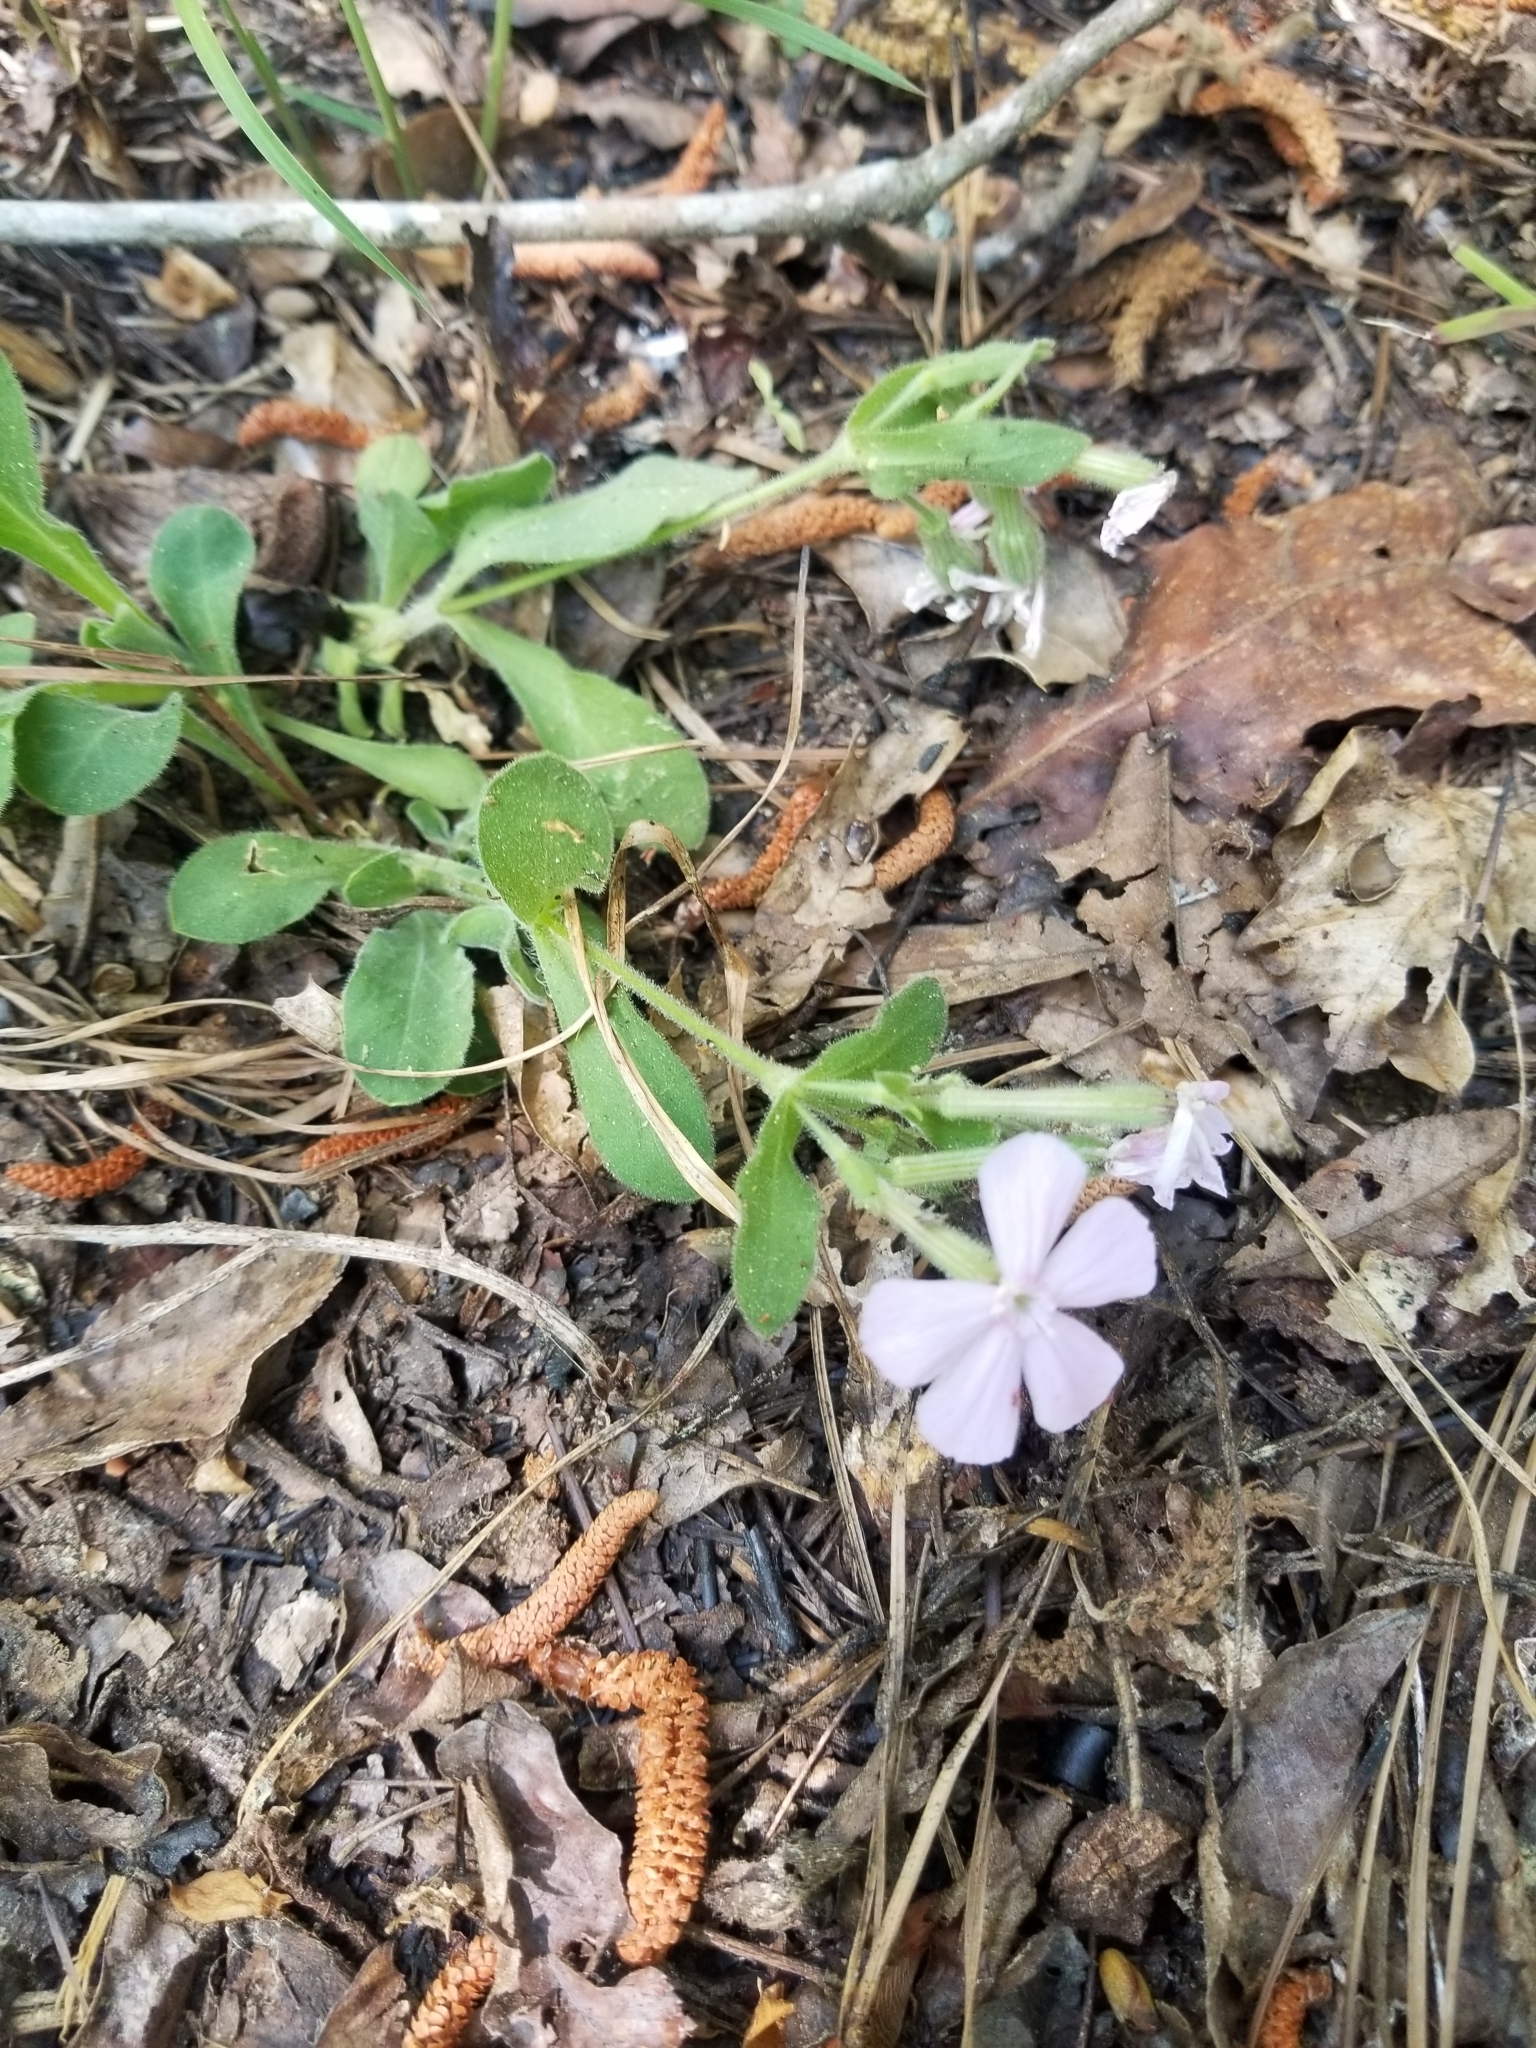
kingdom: Plantae
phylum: Tracheophyta
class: Magnoliopsida
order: Caryophyllales
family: Caryophyllaceae
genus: Silene
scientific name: Silene caroliniana
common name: Sticky catchfly
